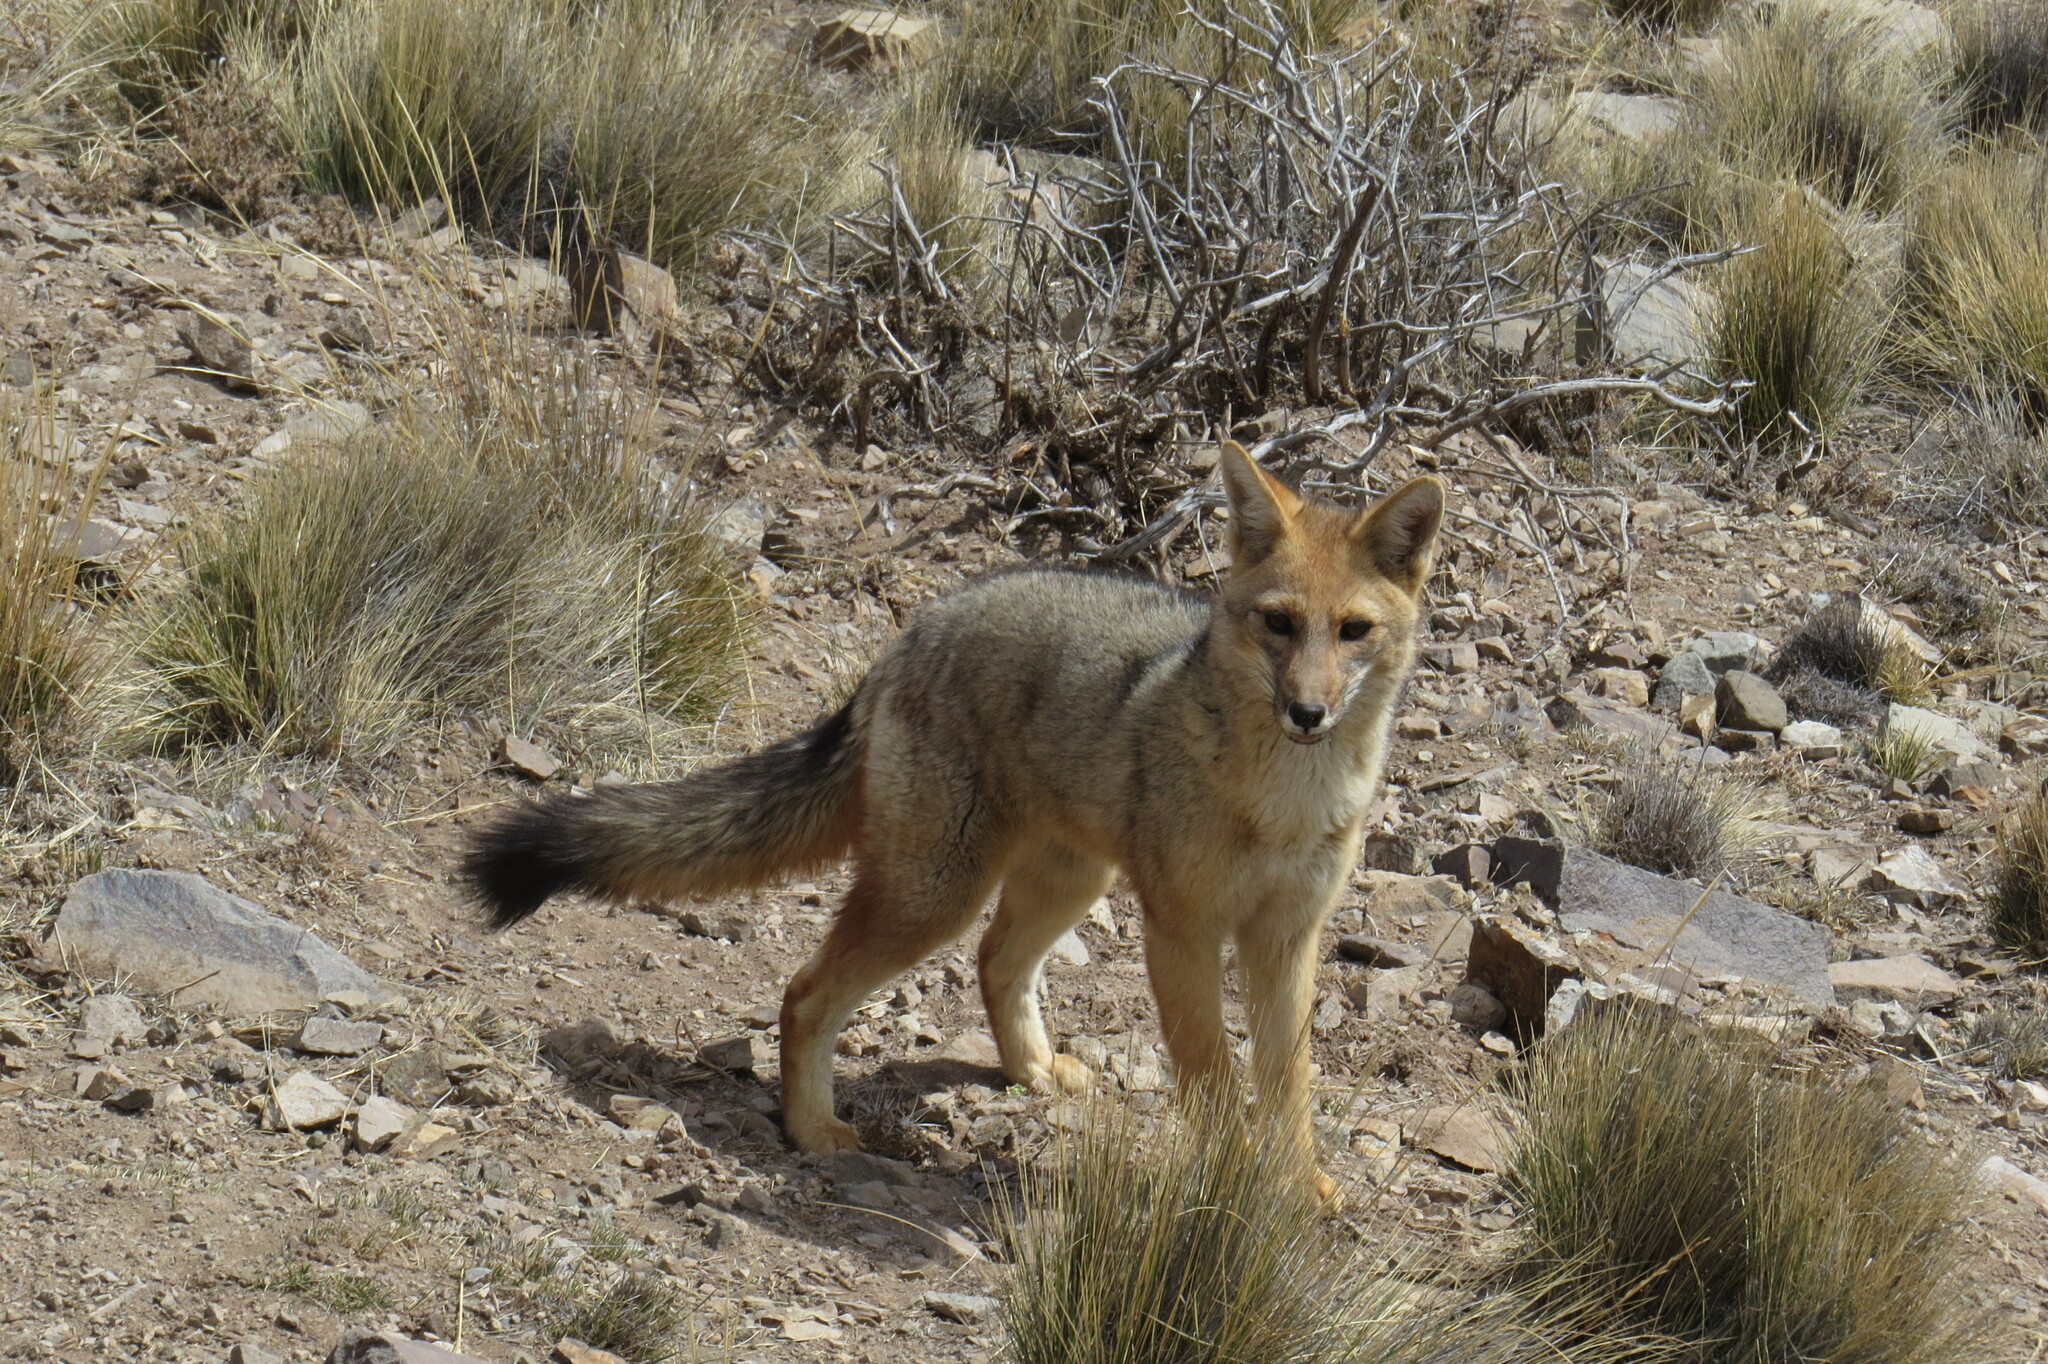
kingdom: Animalia
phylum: Chordata
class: Mammalia
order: Carnivora
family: Canidae
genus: Lycalopex
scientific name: Lycalopex culpaeus
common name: Culpeo
